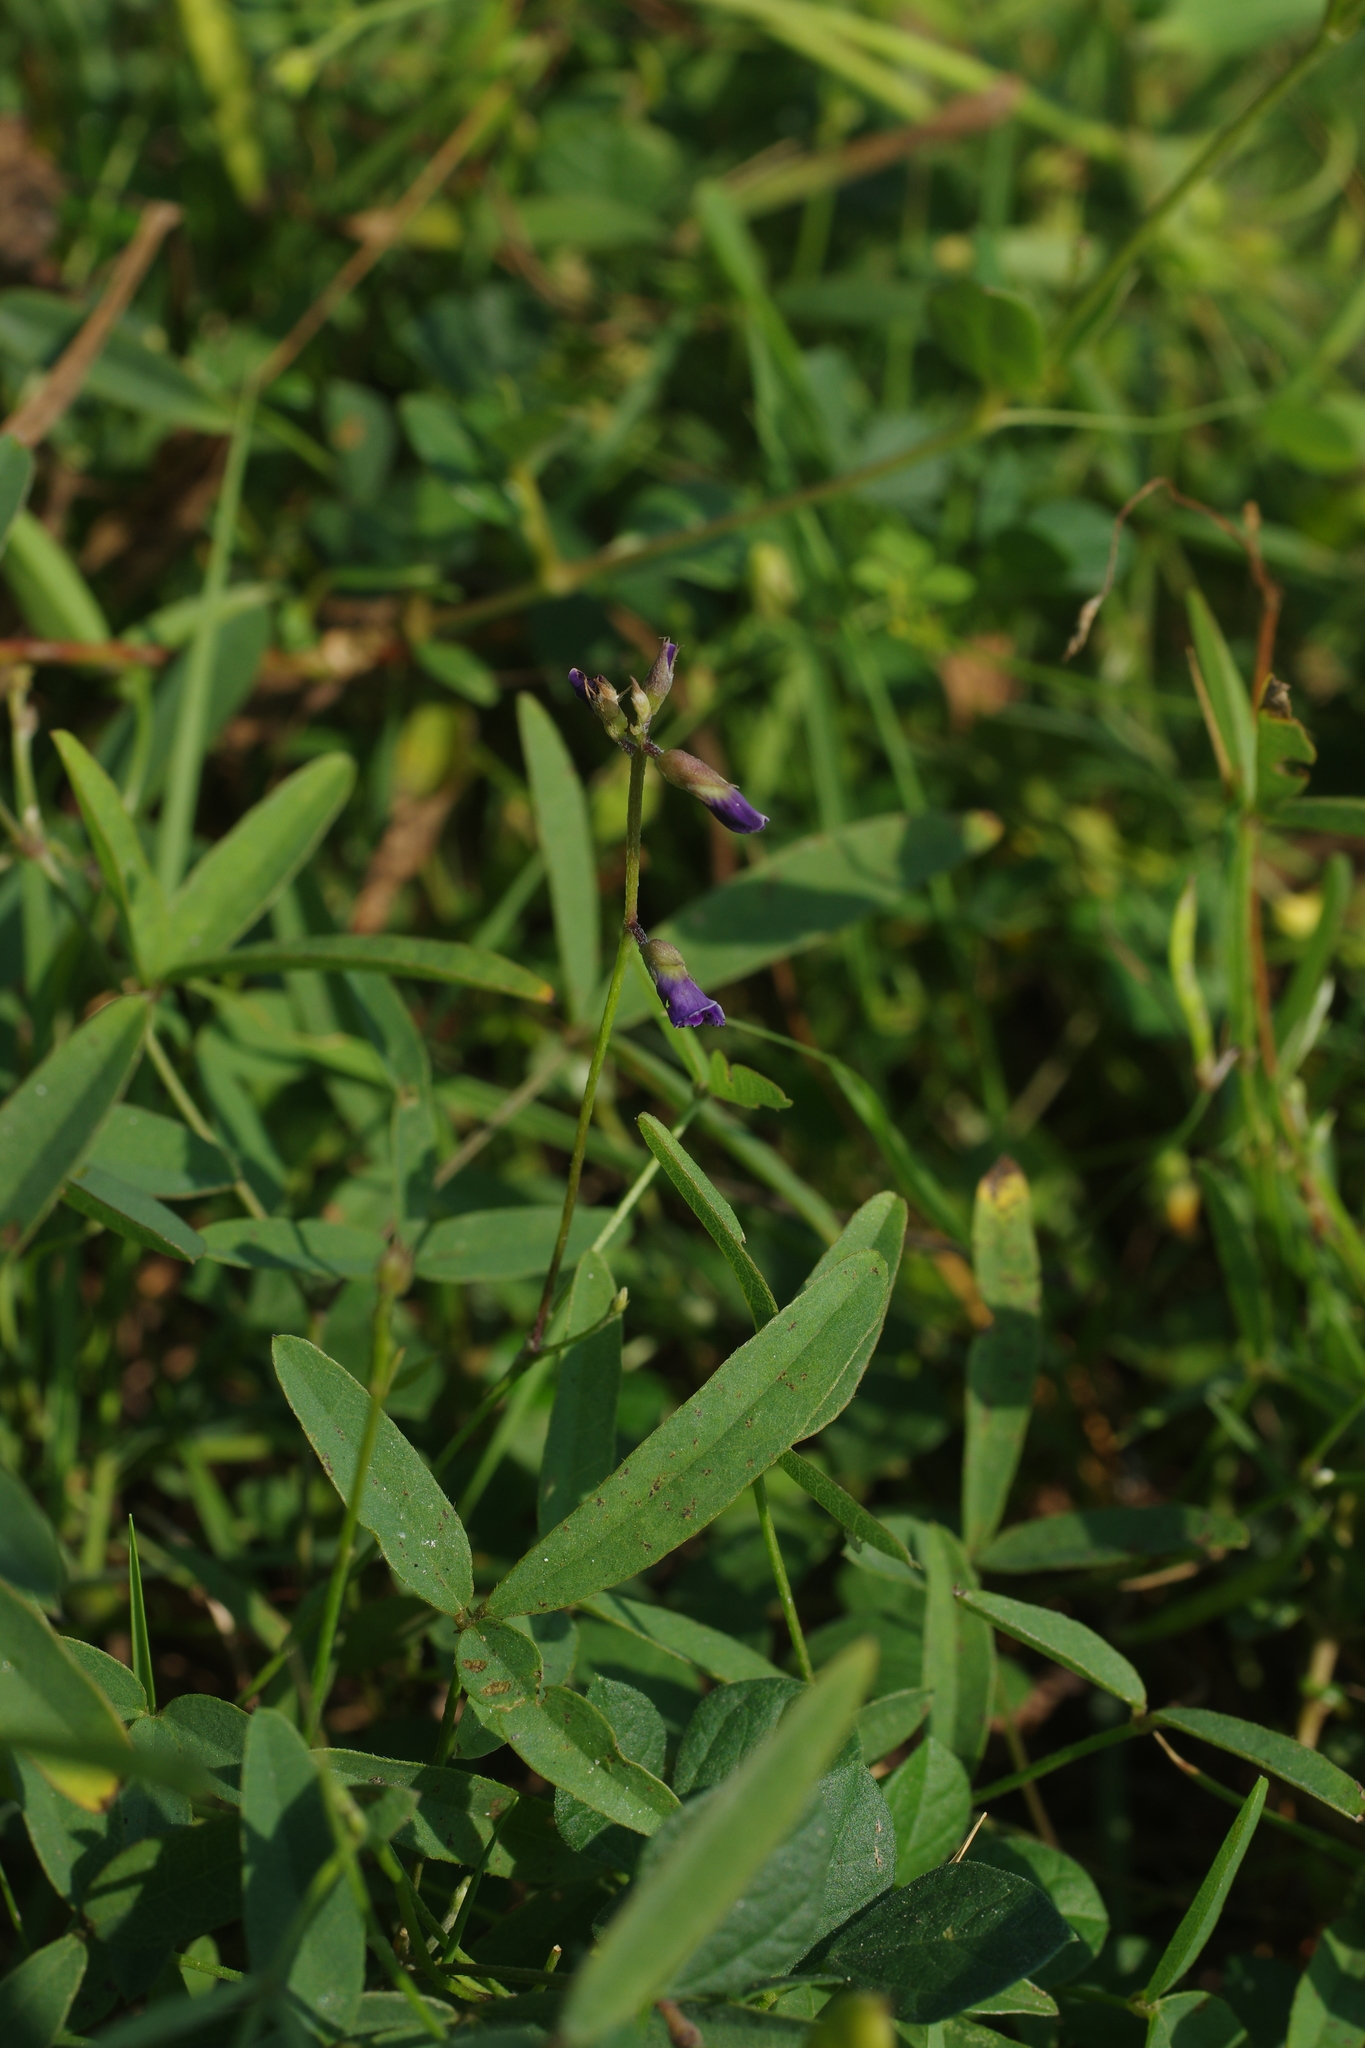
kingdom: Plantae
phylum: Tracheophyta
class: Magnoliopsida
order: Fabales
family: Fabaceae
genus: Glycine
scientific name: Glycine tabacina
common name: Pea glycine
